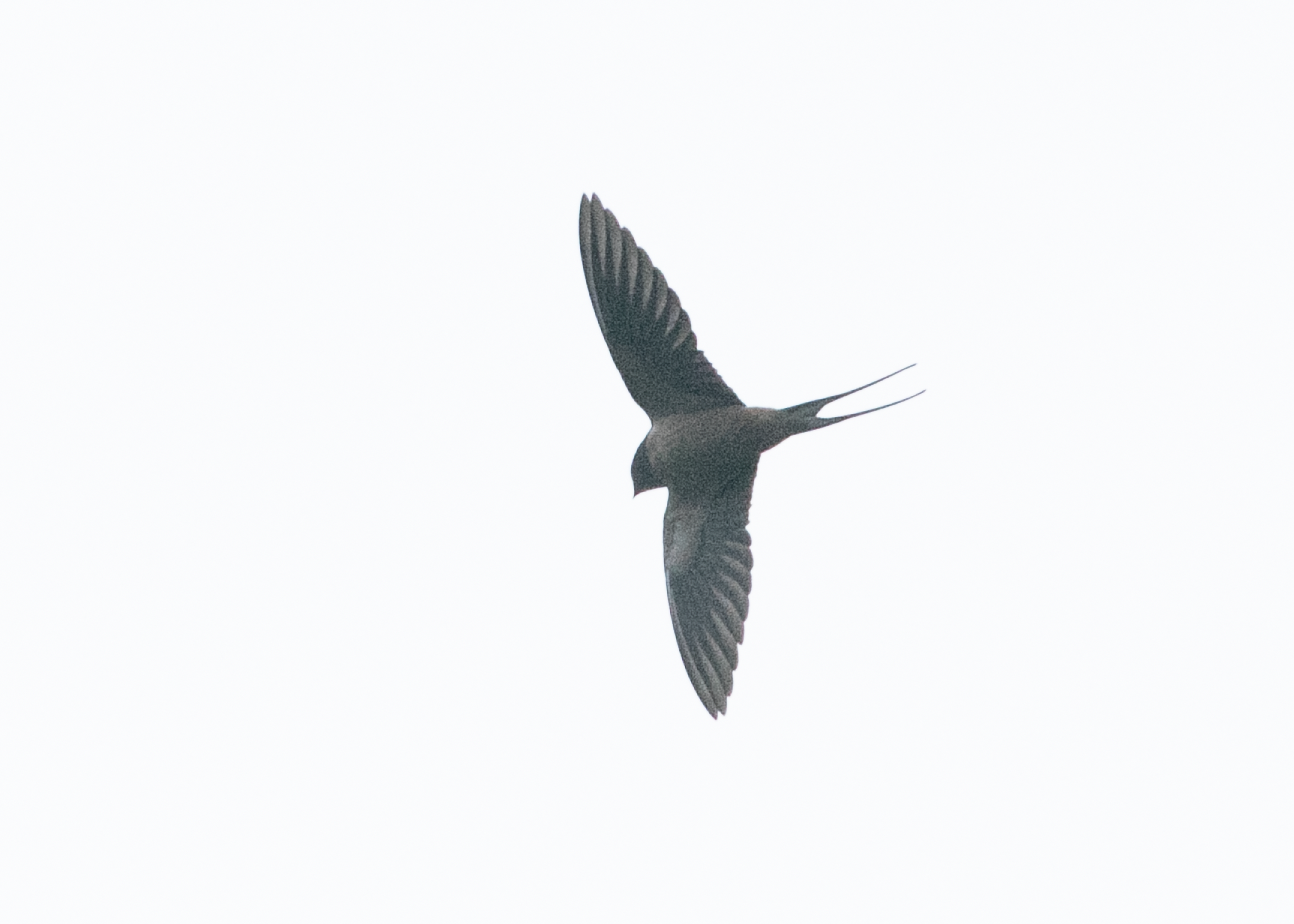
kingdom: Animalia
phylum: Chordata
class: Aves
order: Passeriformes
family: Hirundinidae
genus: Hirundo
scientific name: Hirundo rustica
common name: Barn swallow
